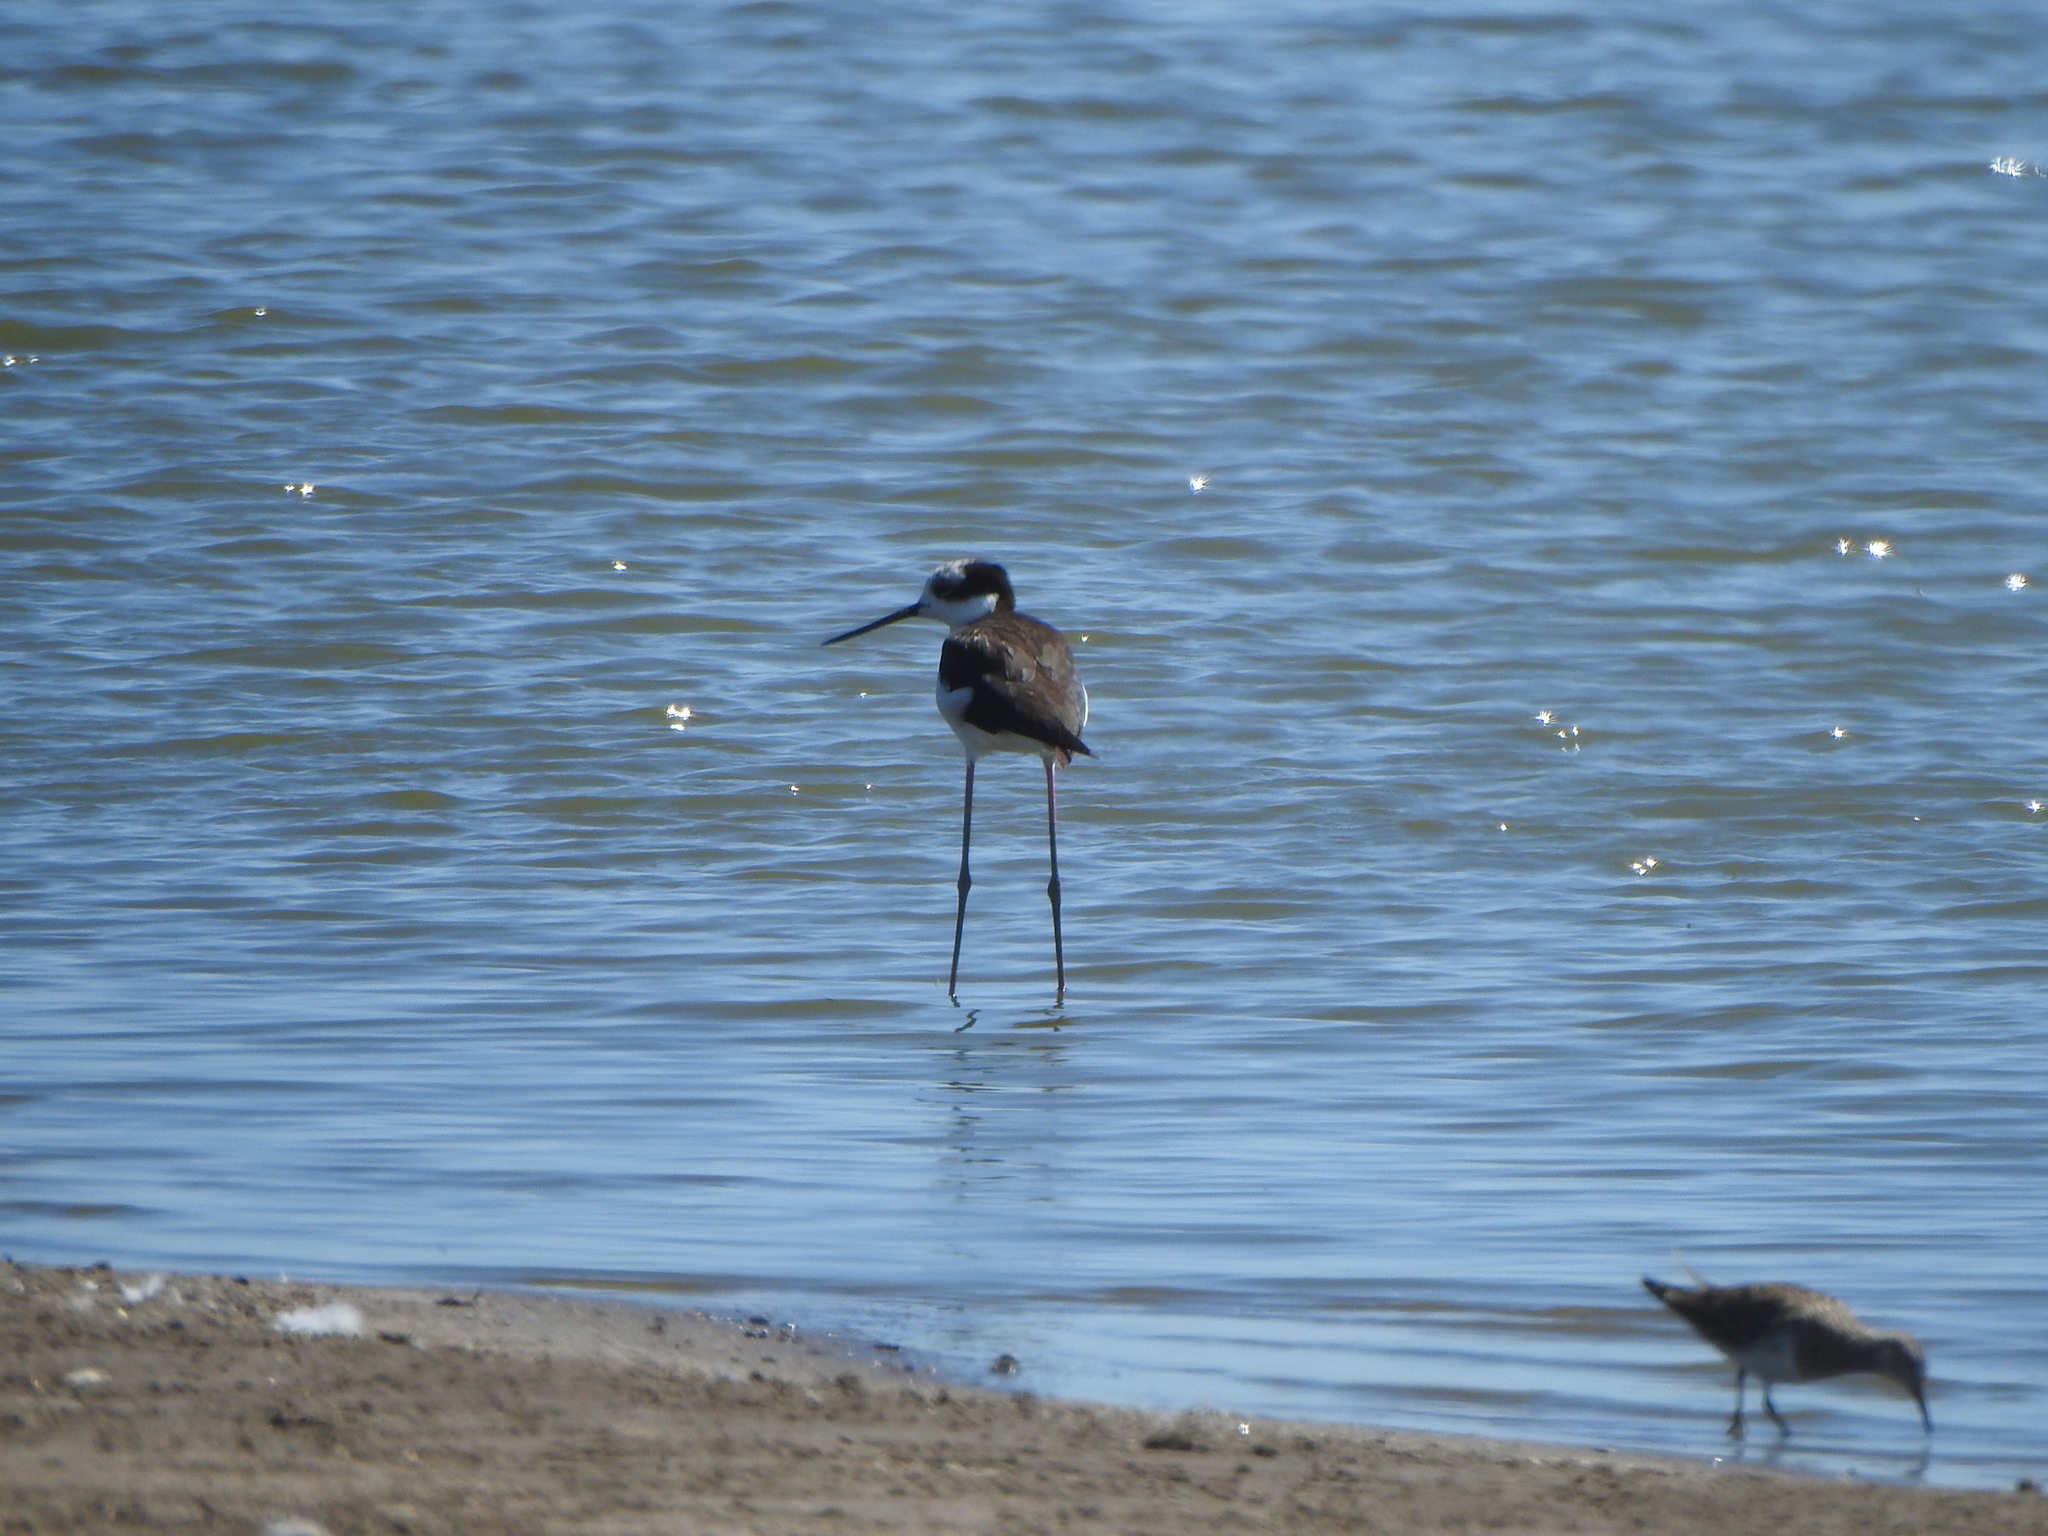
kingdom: Animalia
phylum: Chordata
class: Aves
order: Charadriiformes
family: Recurvirostridae
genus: Himantopus
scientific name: Himantopus mexicanus
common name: Black-necked stilt
